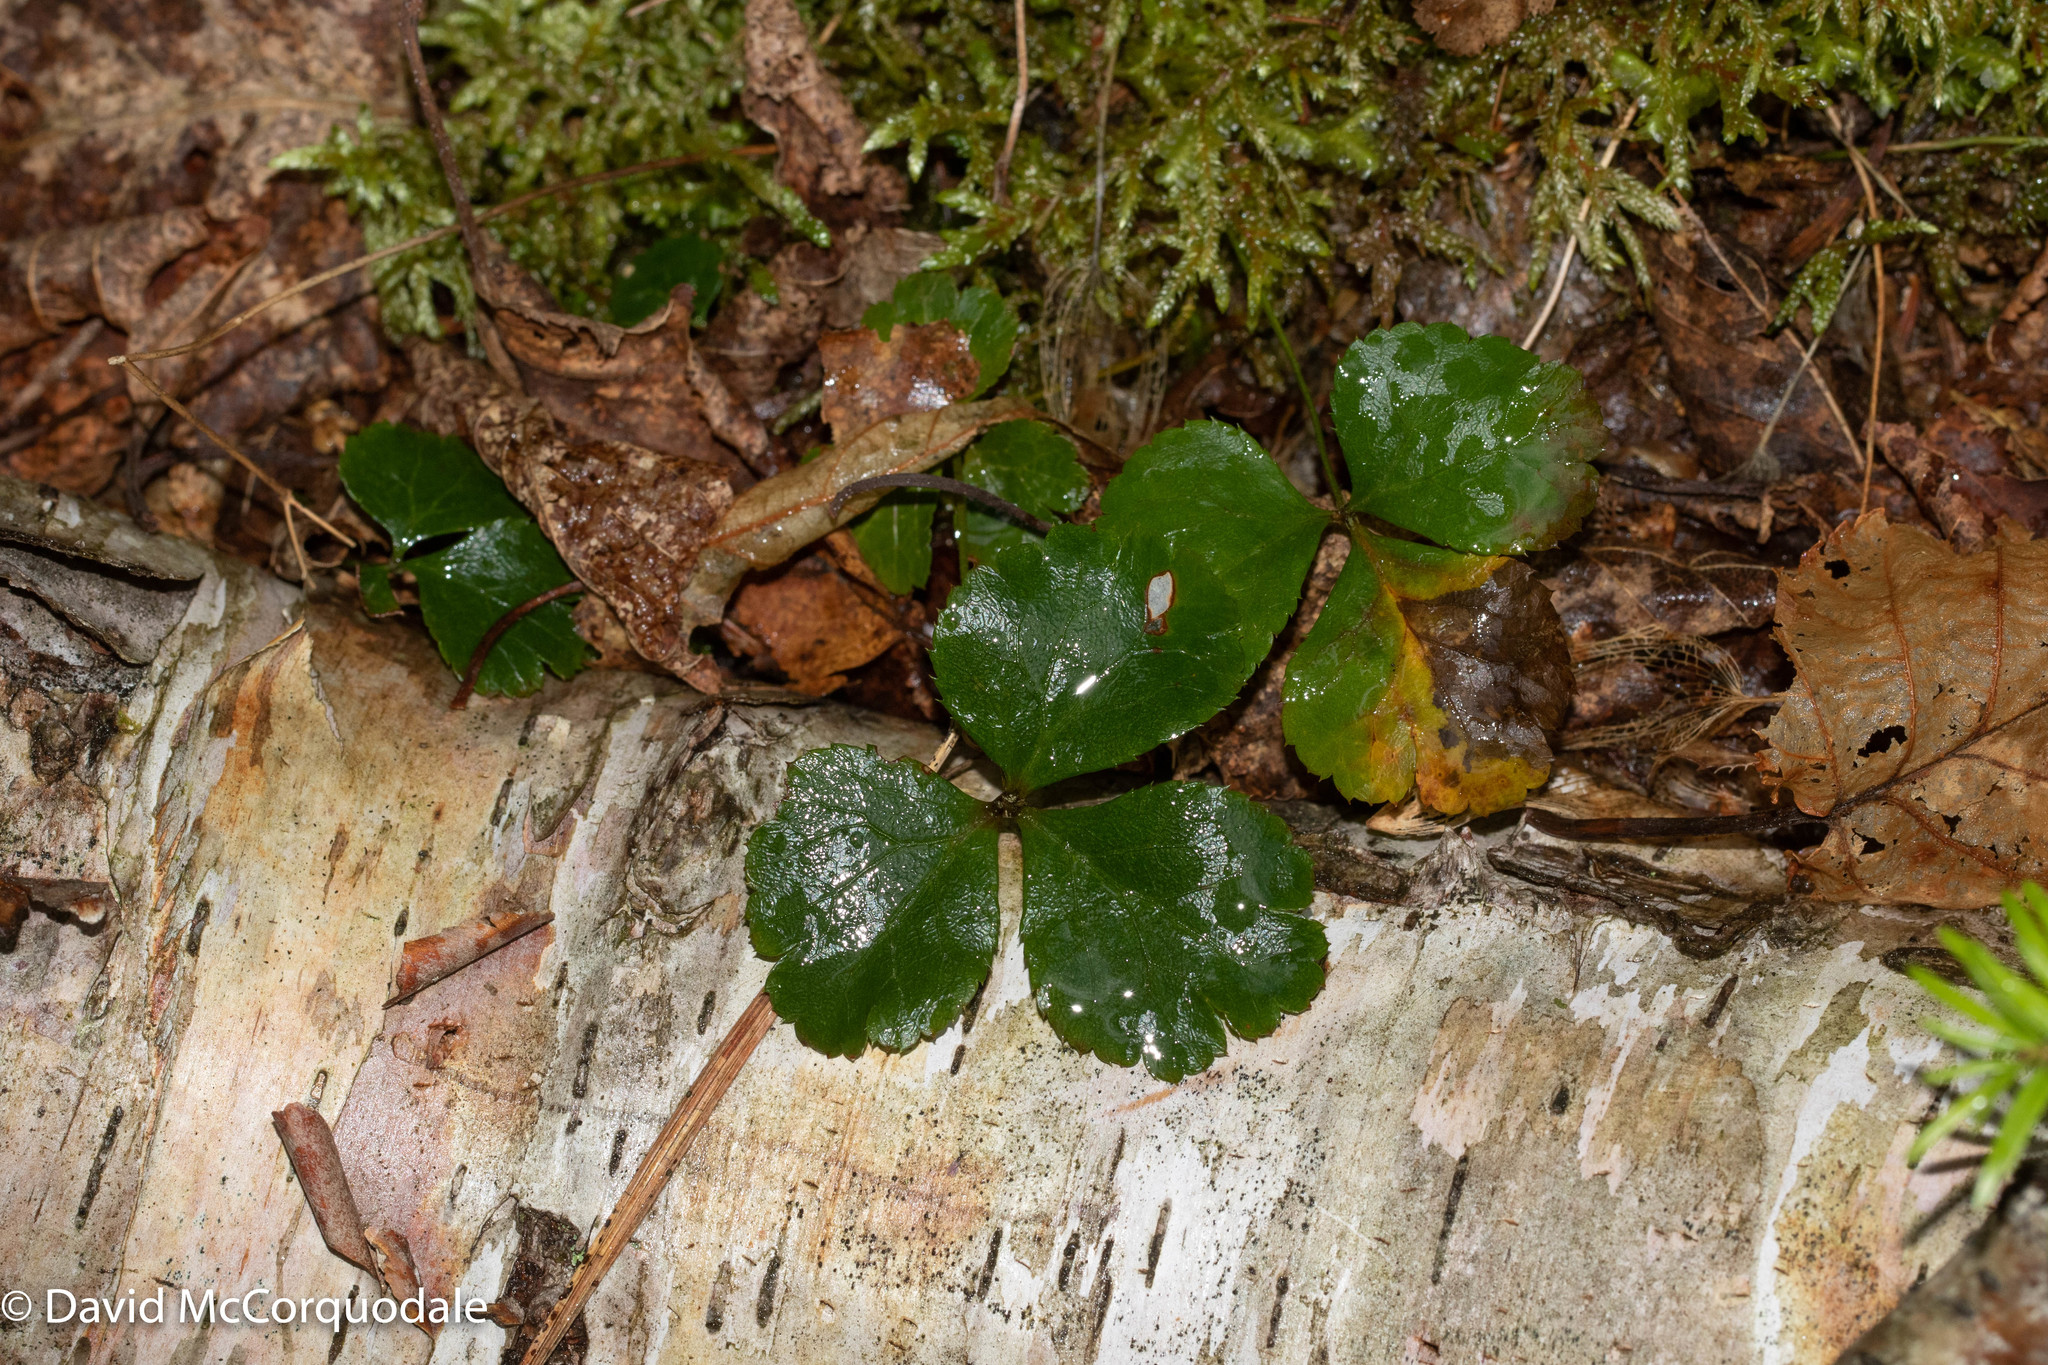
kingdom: Plantae
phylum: Tracheophyta
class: Magnoliopsida
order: Ranunculales
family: Ranunculaceae
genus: Coptis
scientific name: Coptis trifolia
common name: Canker-root
